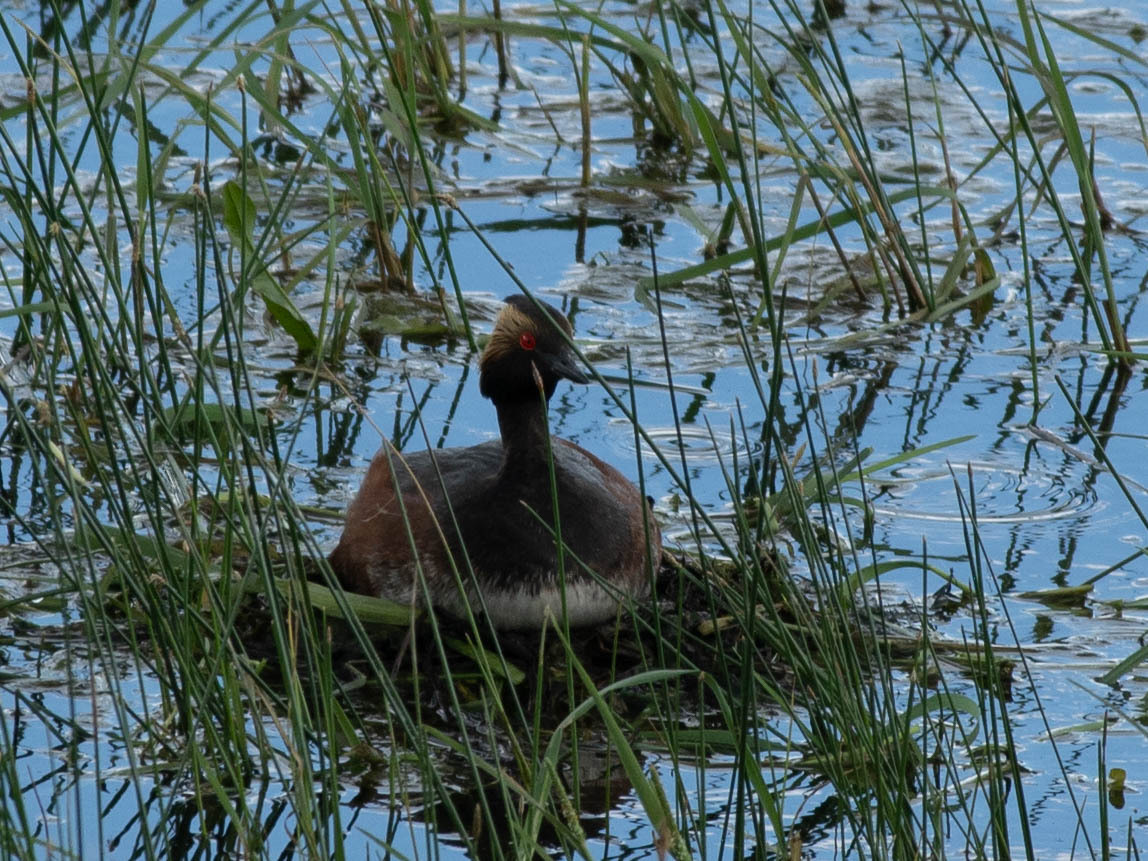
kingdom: Animalia
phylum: Chordata
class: Aves
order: Podicipediformes
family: Podicipedidae
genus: Podiceps
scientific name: Podiceps nigricollis
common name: Black-necked grebe
